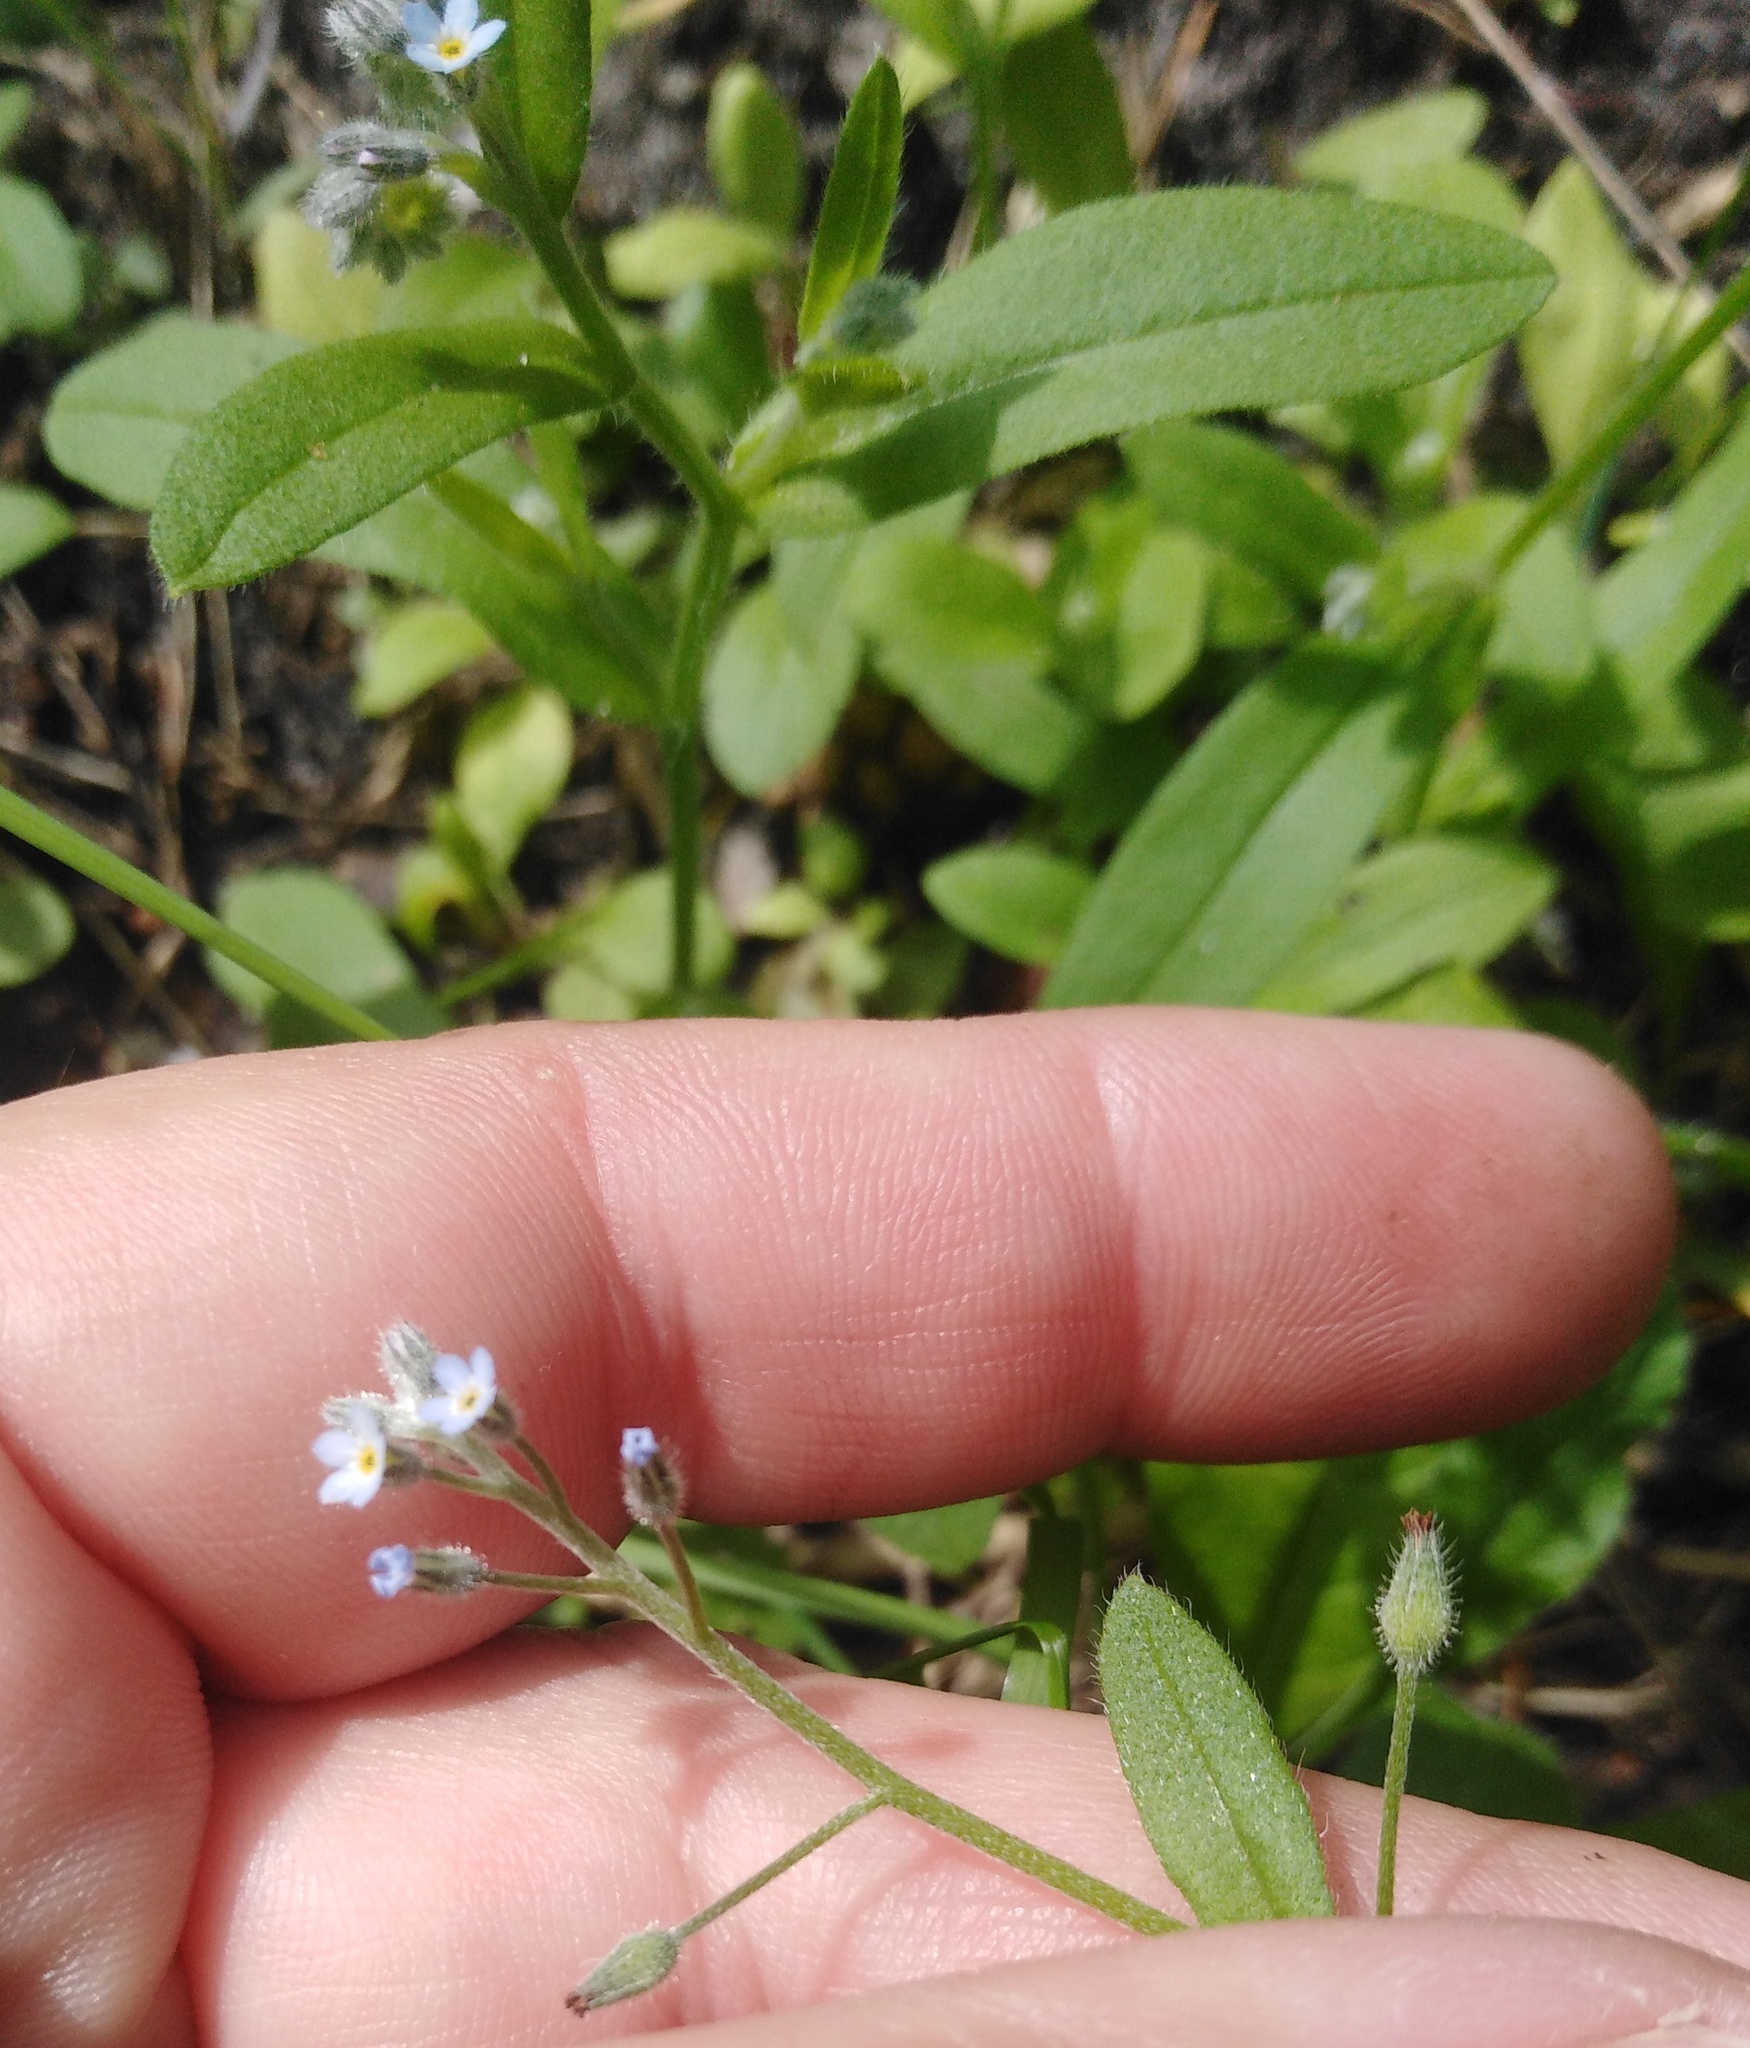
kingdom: Plantae
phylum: Tracheophyta
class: Magnoliopsida
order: Boraginales
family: Boraginaceae
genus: Myosotis
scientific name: Myosotis arvensis
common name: Field forget-me-not
